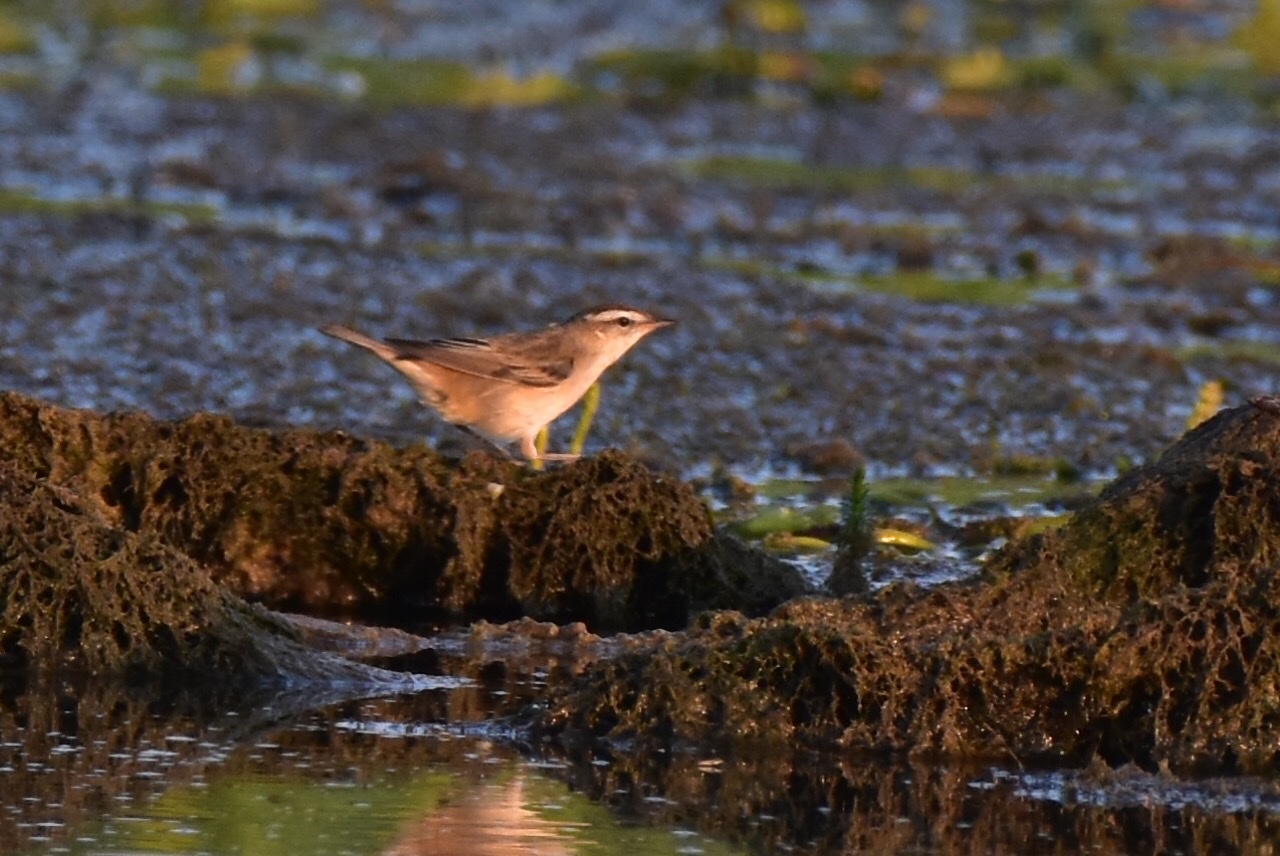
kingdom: Animalia
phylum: Chordata
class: Aves
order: Passeriformes
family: Acrocephalidae
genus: Acrocephalus
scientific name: Acrocephalus schoenobaenus
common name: Sedge warbler
